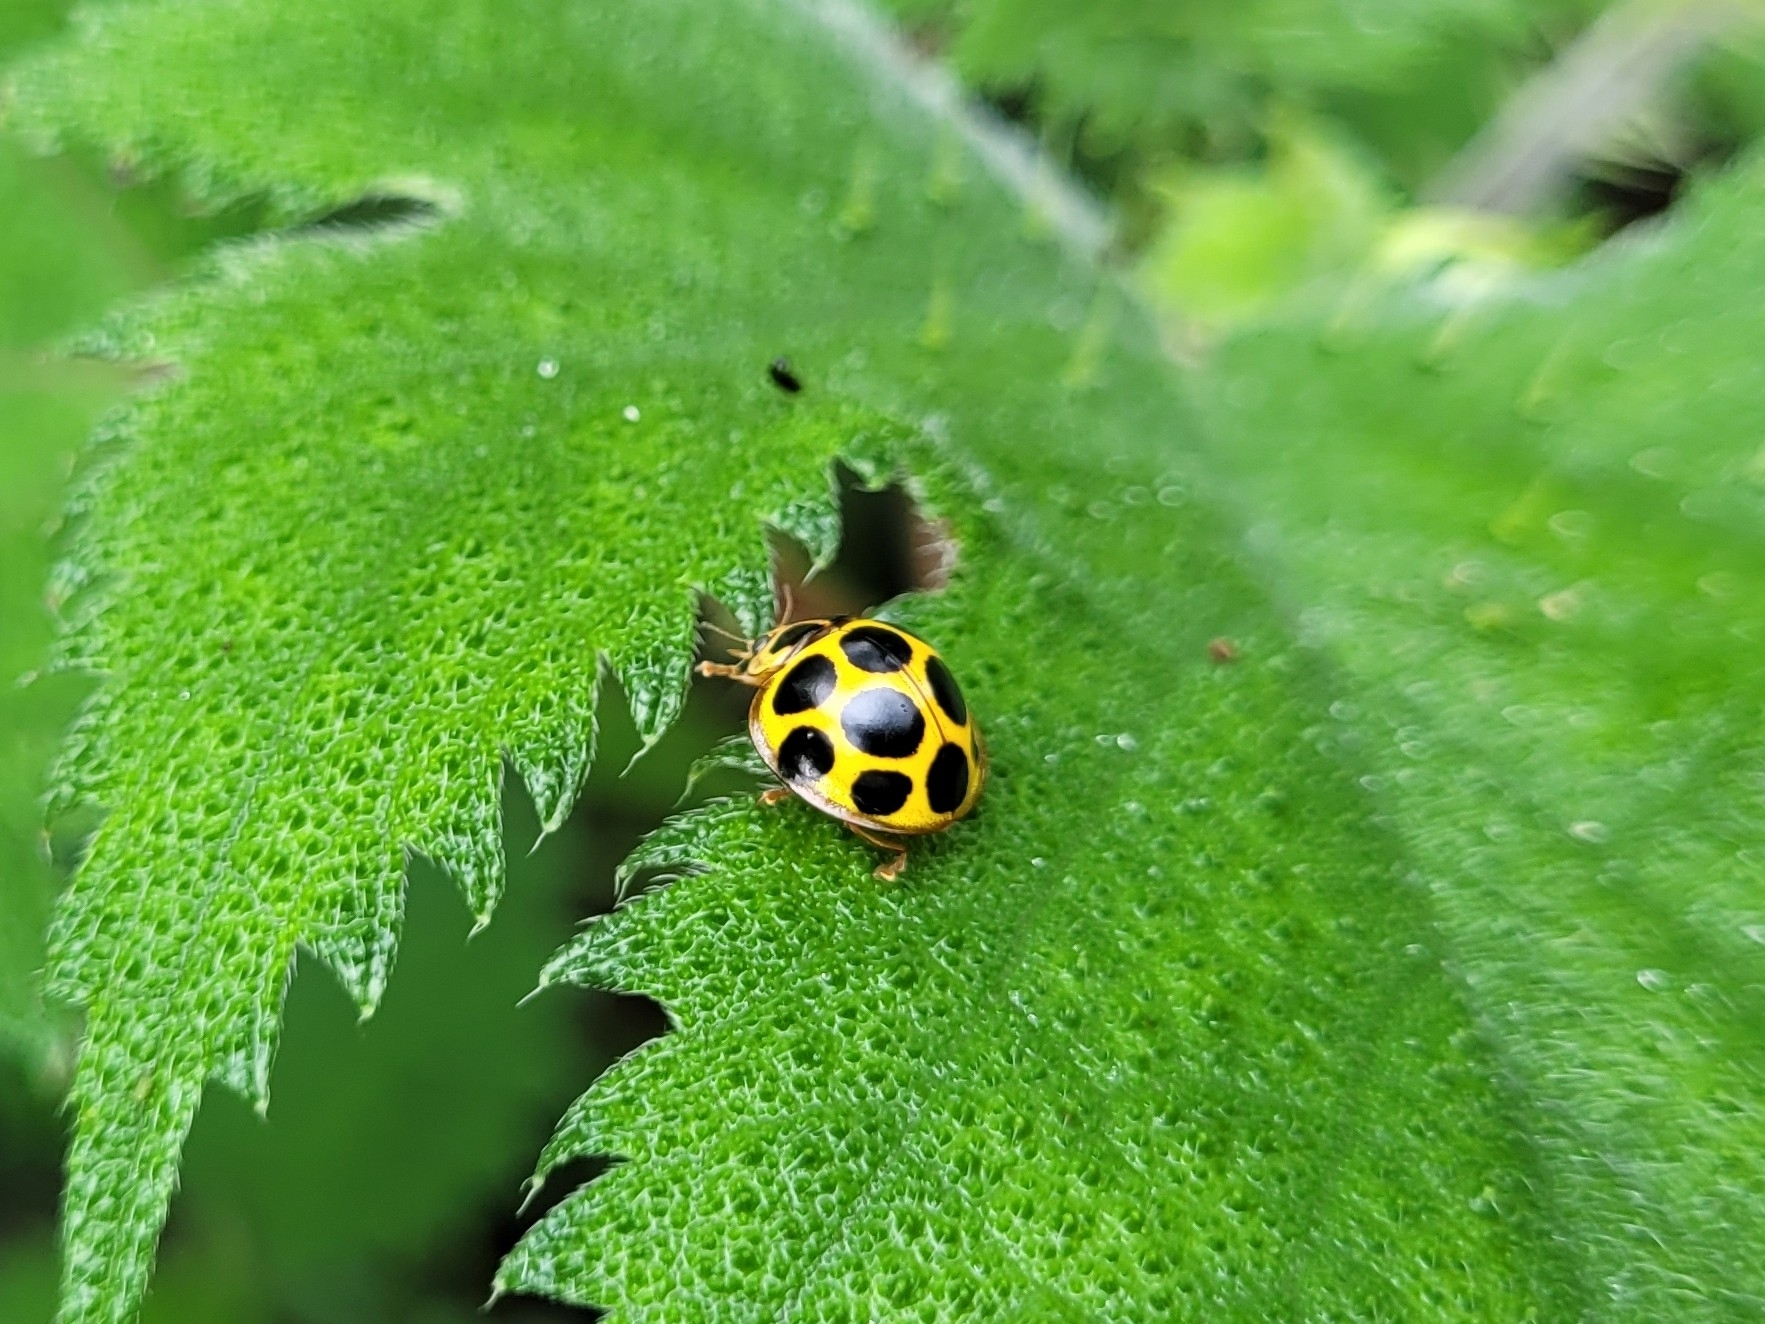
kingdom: Animalia
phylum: Arthropoda
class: Insecta
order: Coleoptera
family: Coccinellidae
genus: Alloneda
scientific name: Alloneda
